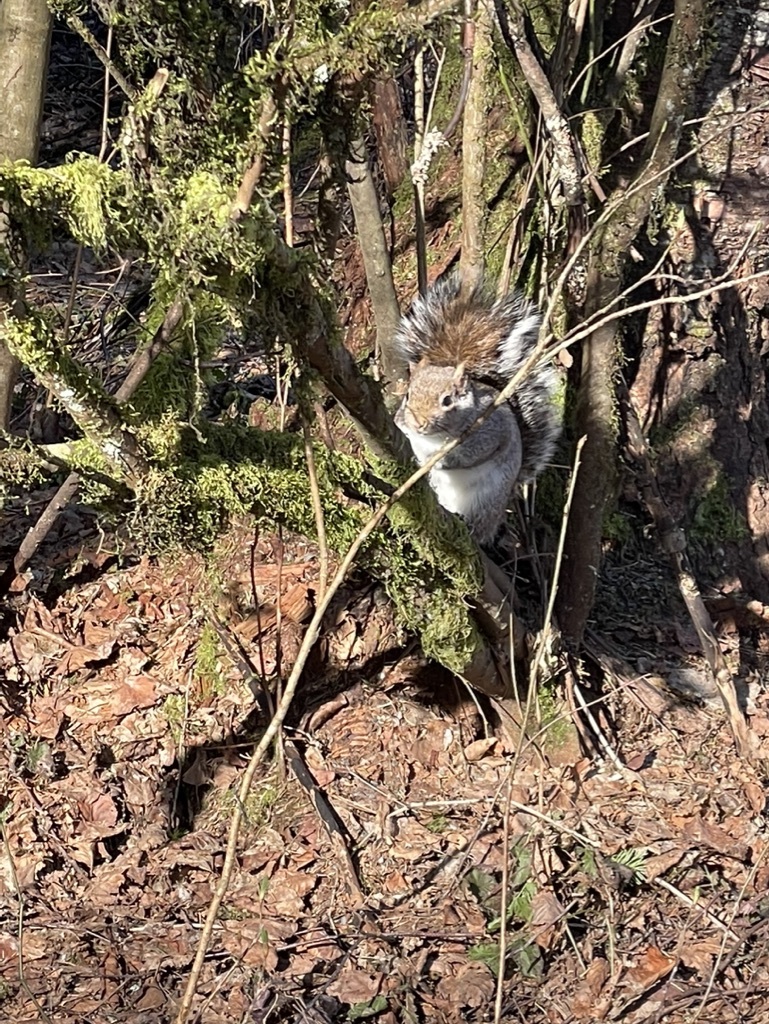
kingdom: Animalia
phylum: Chordata
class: Mammalia
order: Rodentia
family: Sciuridae
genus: Sciurus
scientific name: Sciurus carolinensis
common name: Eastern gray squirrel
